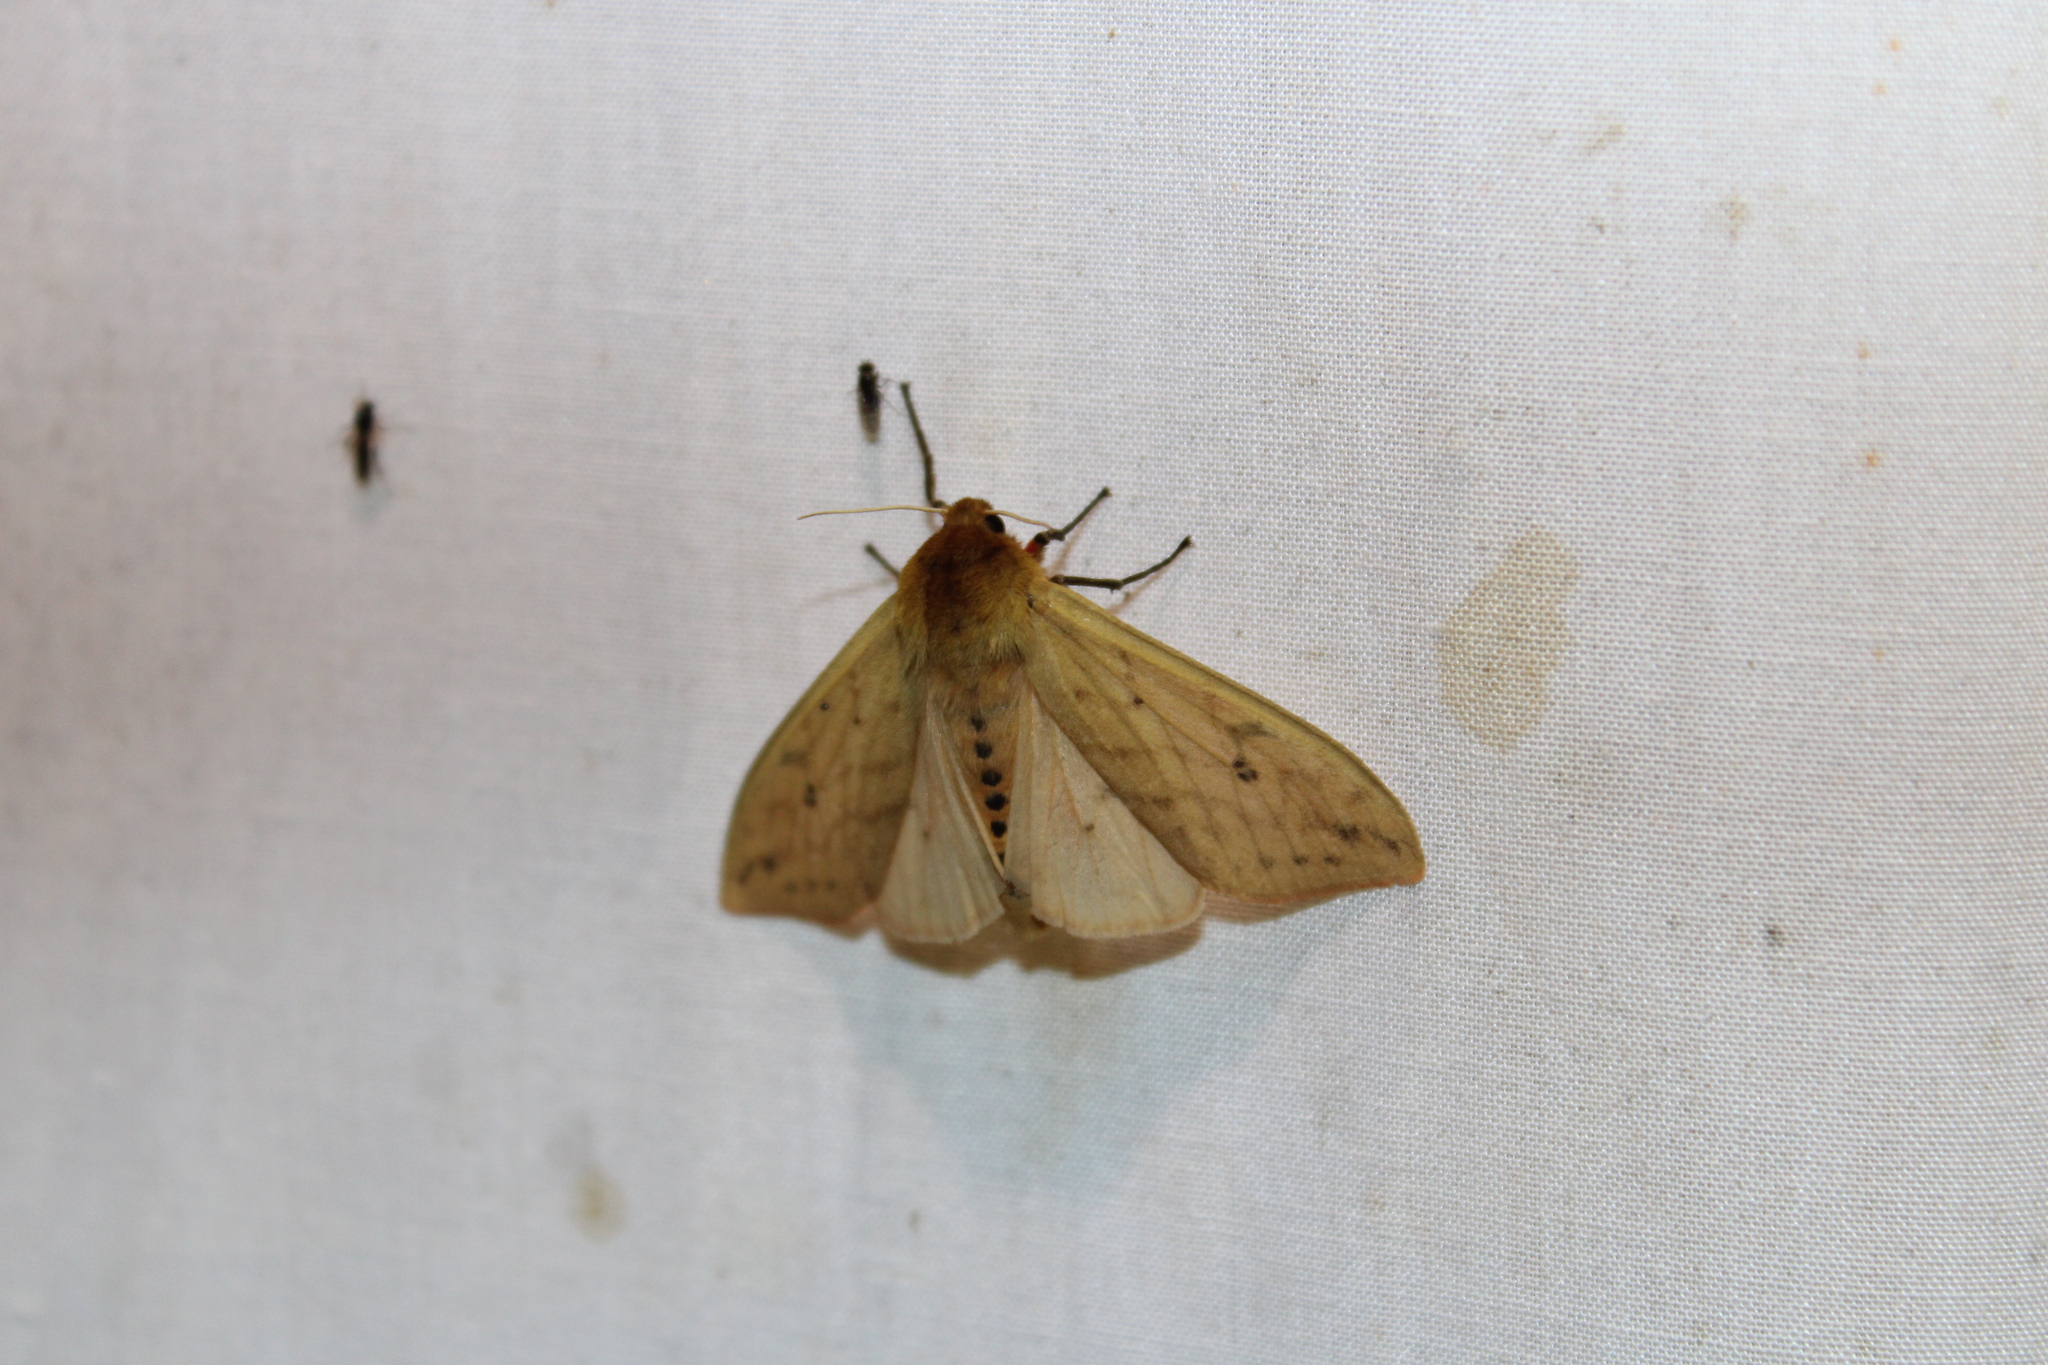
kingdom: Animalia
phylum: Arthropoda
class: Insecta
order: Lepidoptera
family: Erebidae
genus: Pyrrharctia
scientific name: Pyrrharctia isabella
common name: Isabella tiger moth
